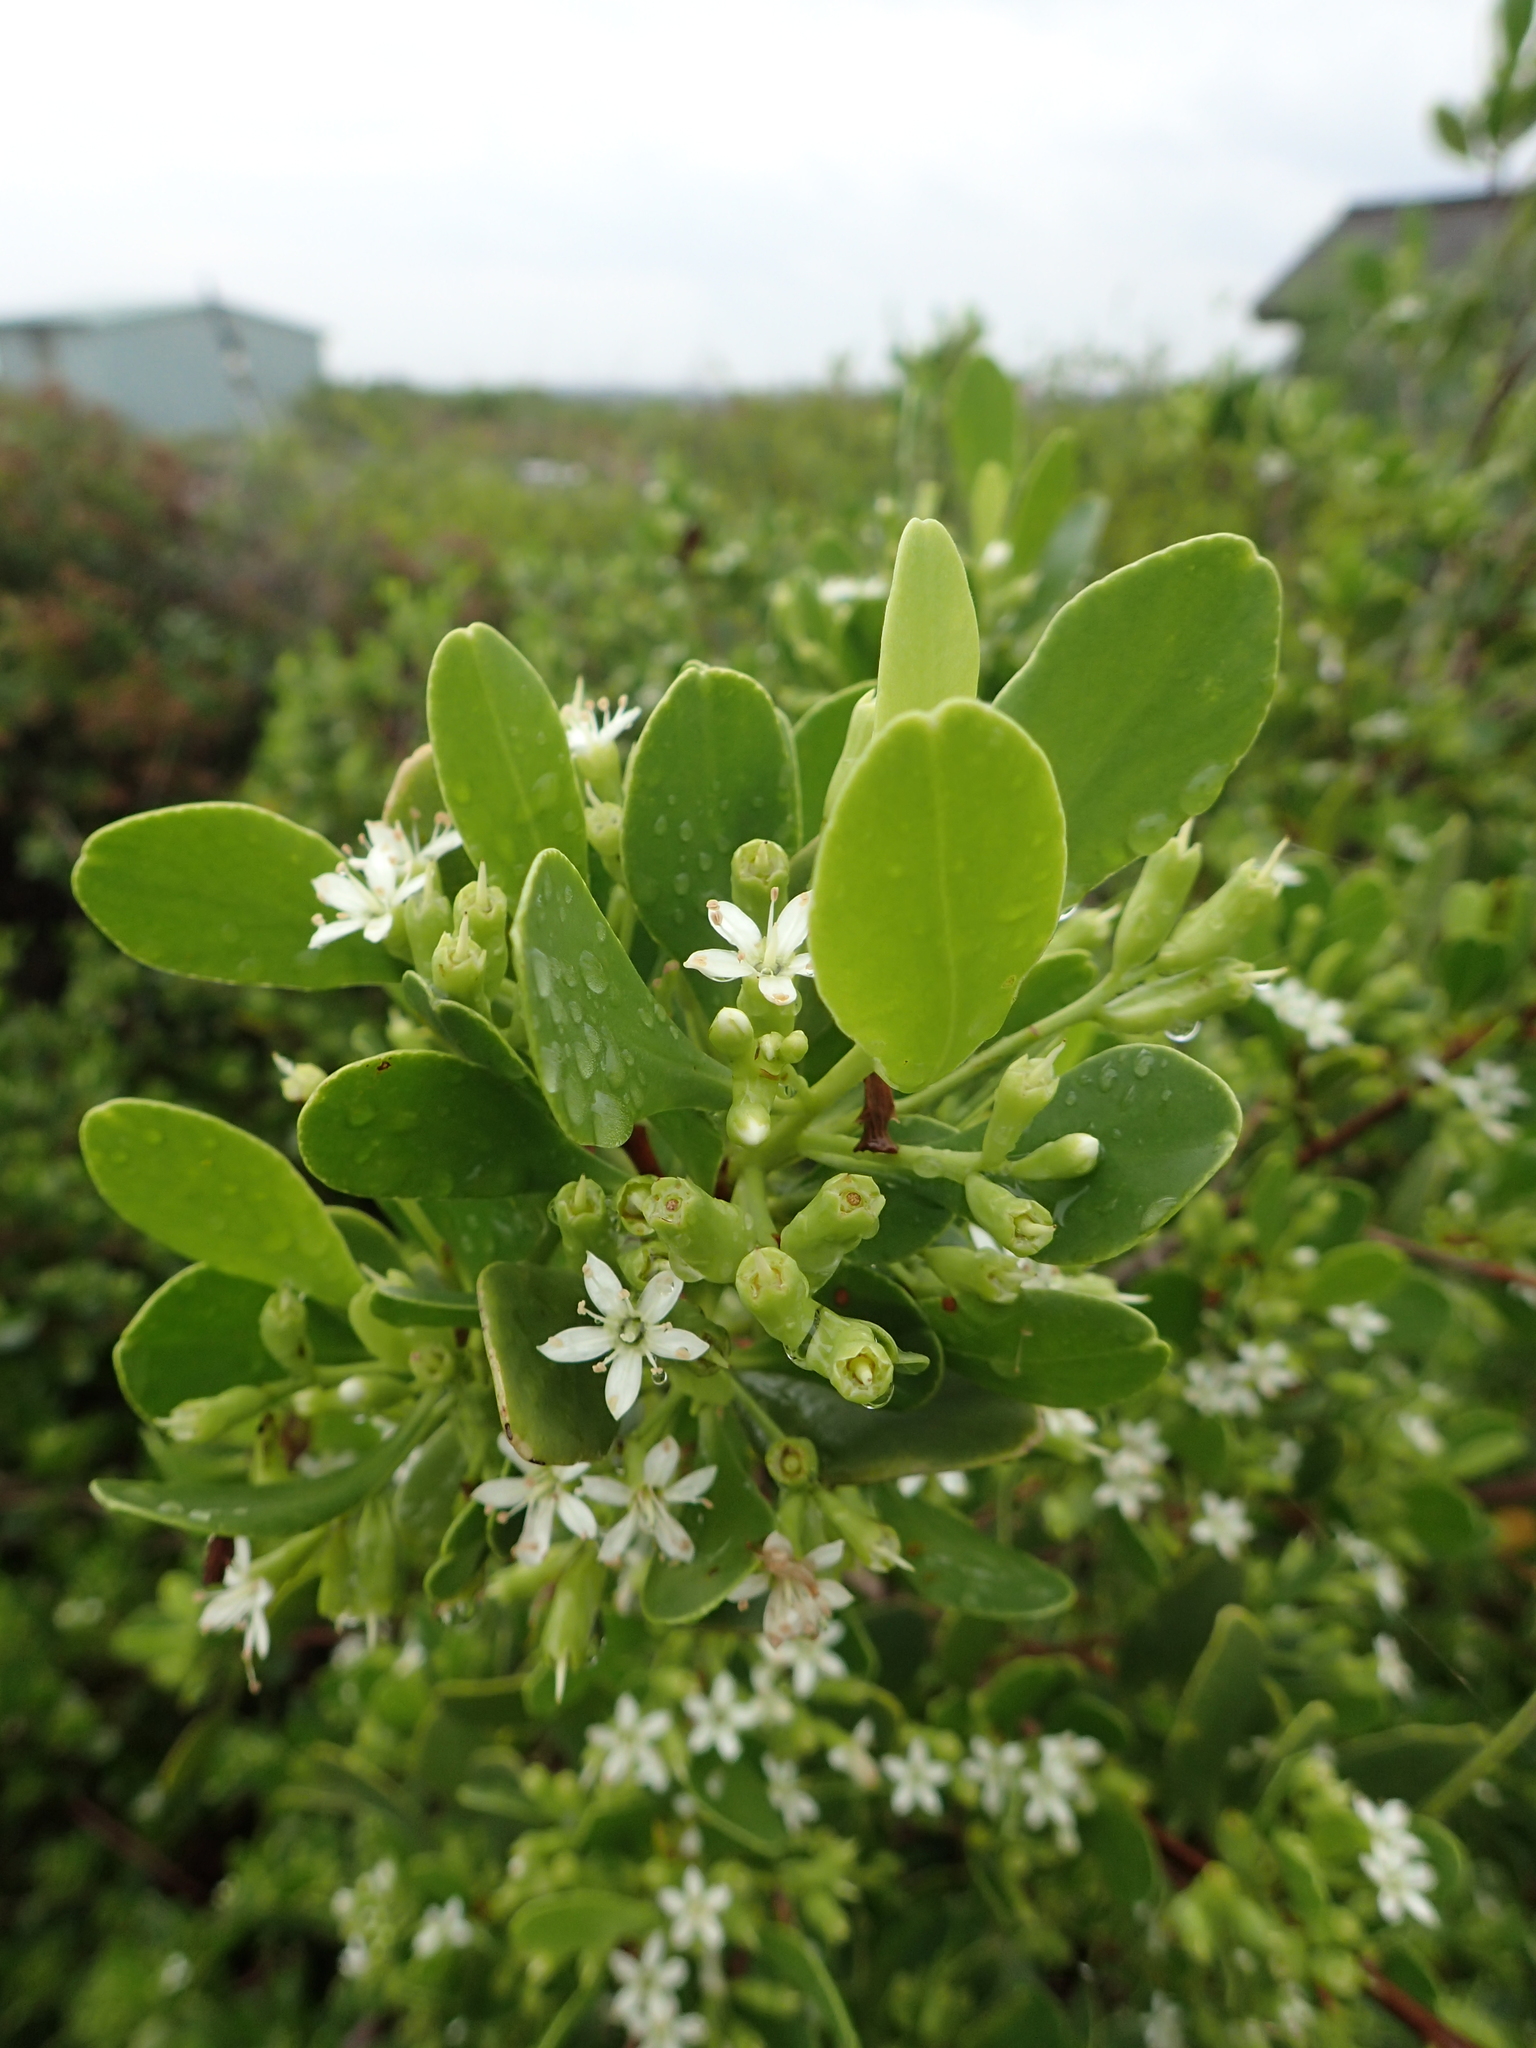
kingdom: Plantae
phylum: Tracheophyta
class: Magnoliopsida
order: Myrtales
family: Combretaceae
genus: Lumnitzera
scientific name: Lumnitzera racemosa
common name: White-flowered black mangrove
